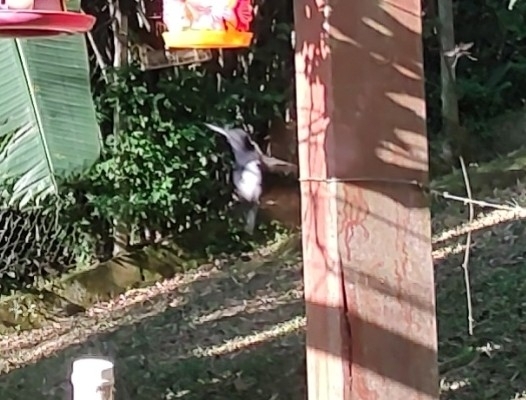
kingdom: Animalia
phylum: Chordata
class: Aves
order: Apodiformes
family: Trochilidae
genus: Florisuga
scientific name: Florisuga fusca
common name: Black jacobin
